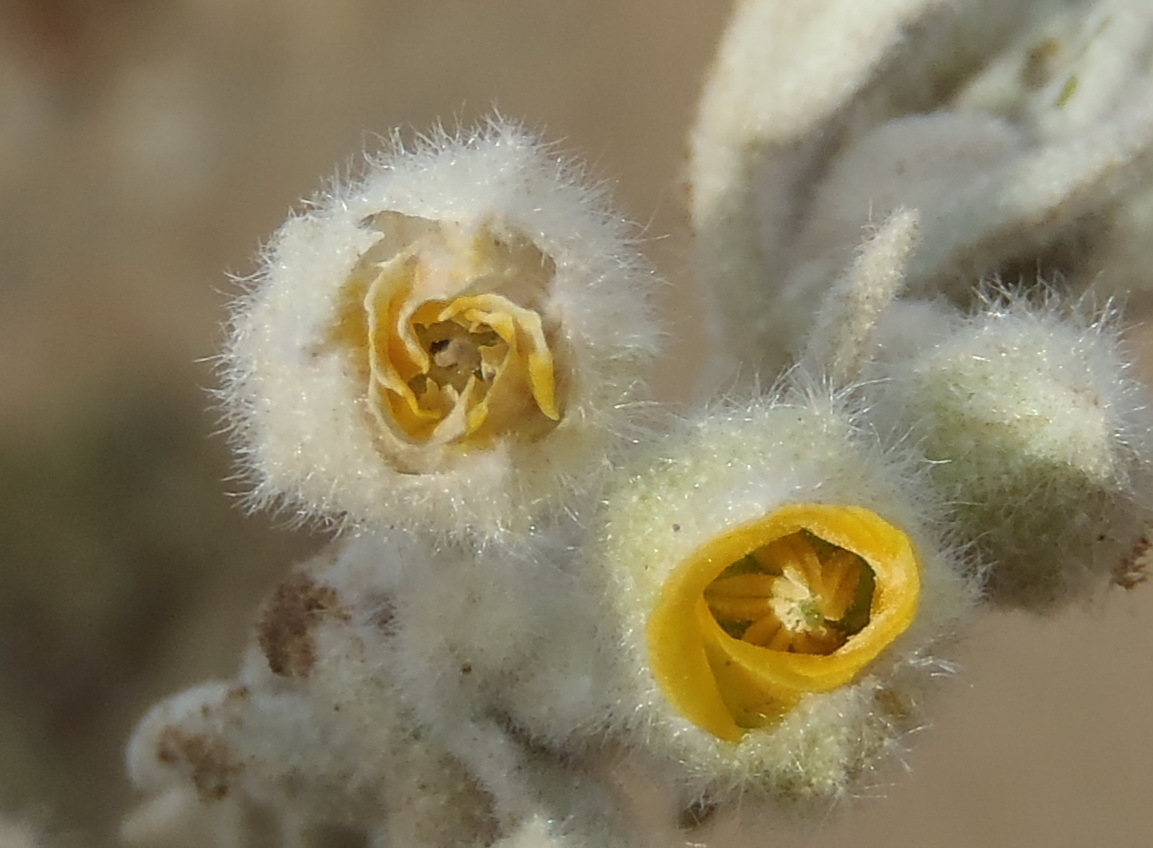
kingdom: Plantae
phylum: Tracheophyta
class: Magnoliopsida
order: Malvales
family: Malvaceae
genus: Hermannia
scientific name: Hermannia vestita
